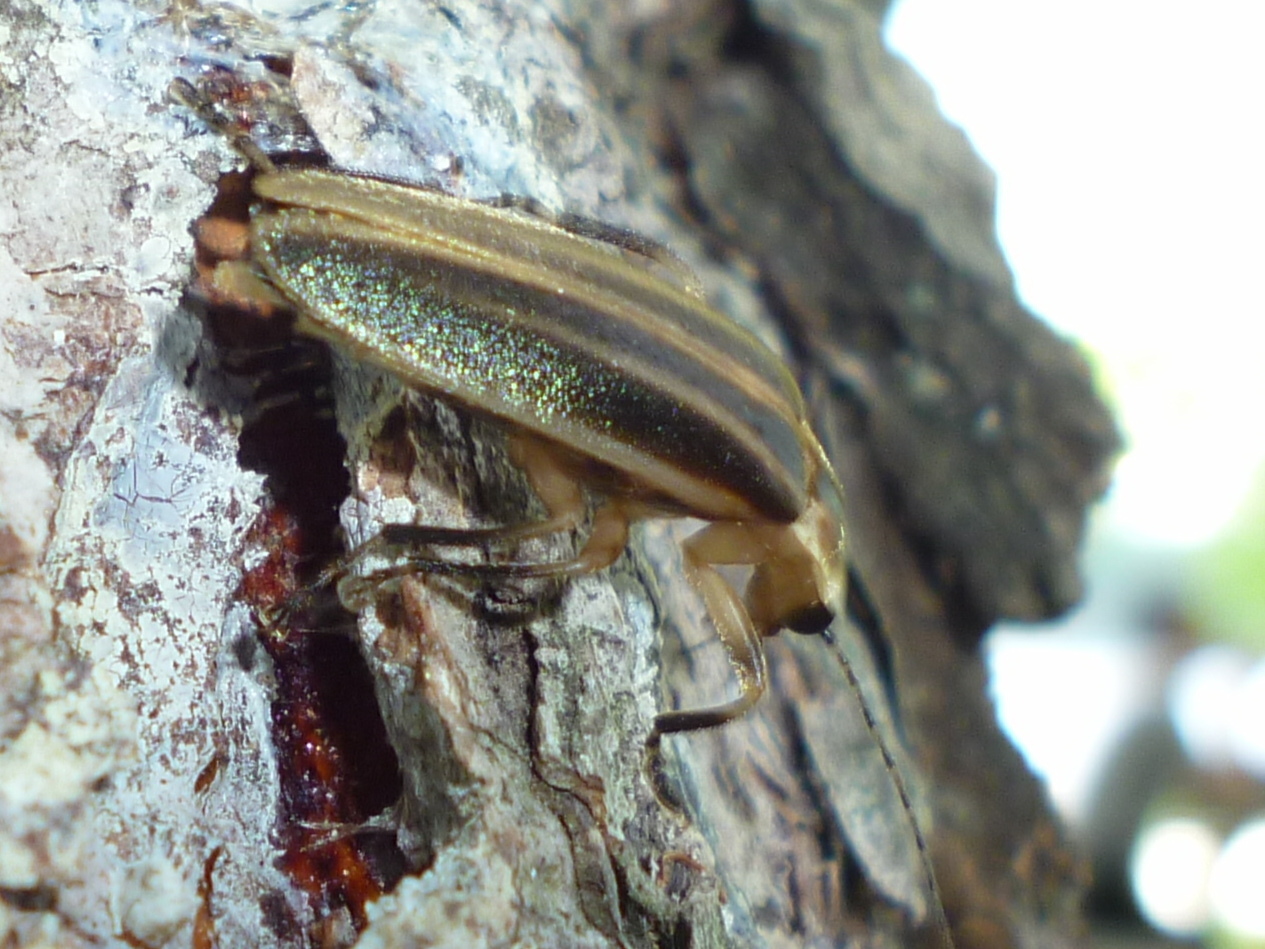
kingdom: Animalia
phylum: Arthropoda
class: Insecta
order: Coleoptera
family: Lampyridae
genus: Photuris
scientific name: Photuris
